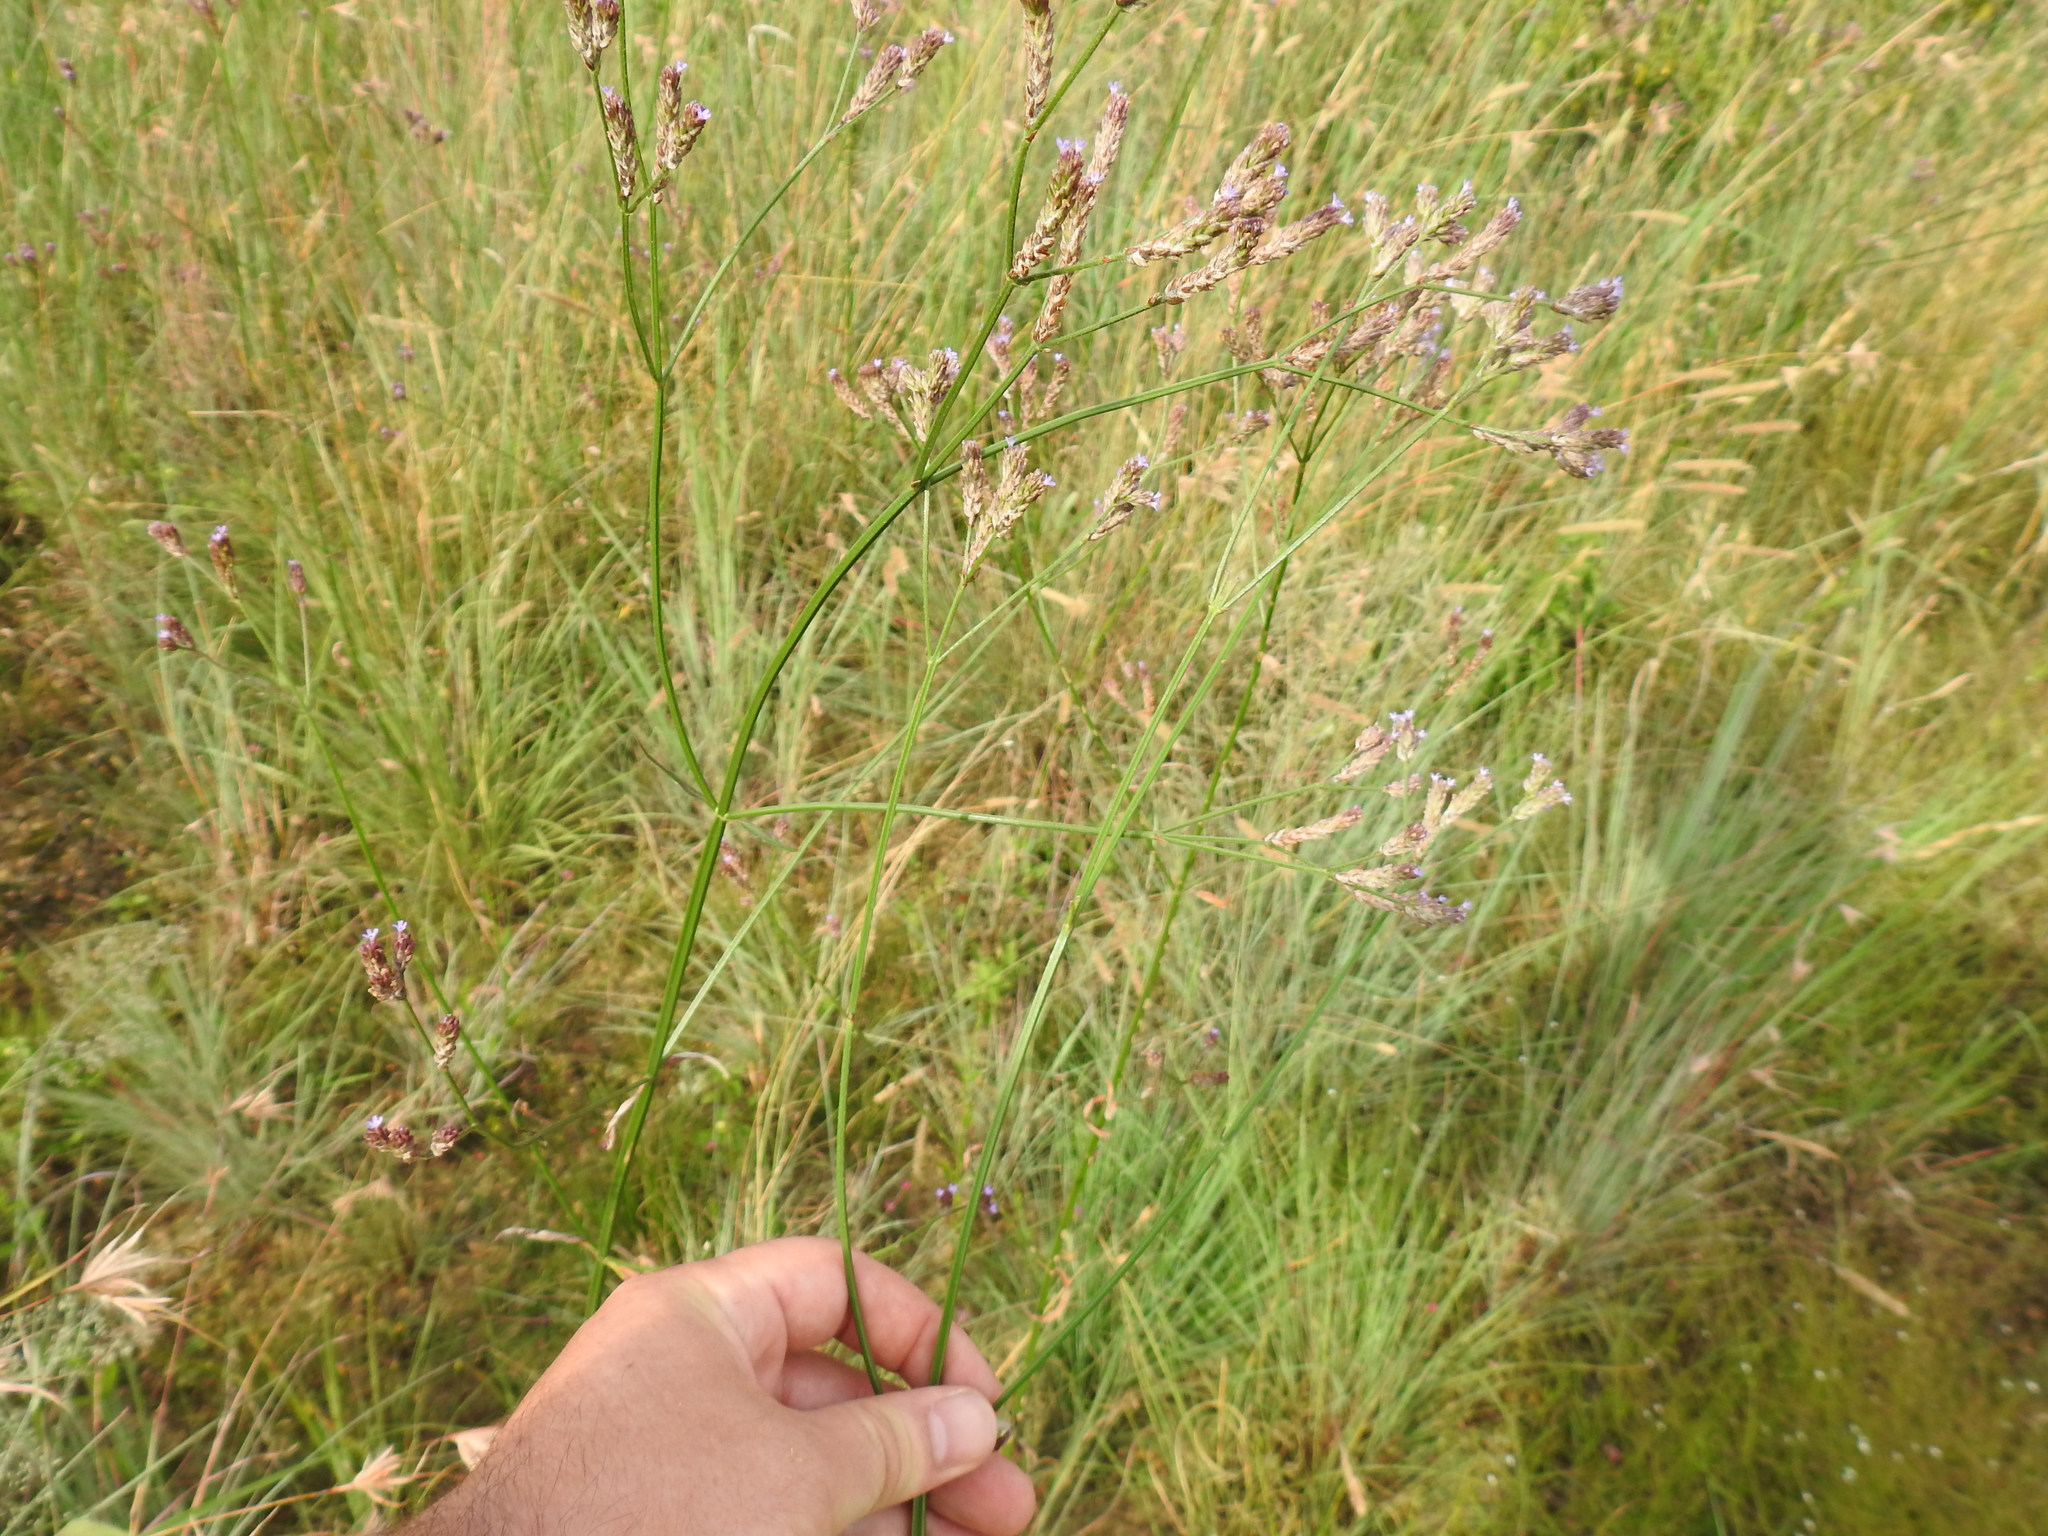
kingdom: Plantae
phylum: Tracheophyta
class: Magnoliopsida
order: Lamiales
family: Verbenaceae
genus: Verbena
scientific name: Verbena bonariensis
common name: Purpletop vervain
